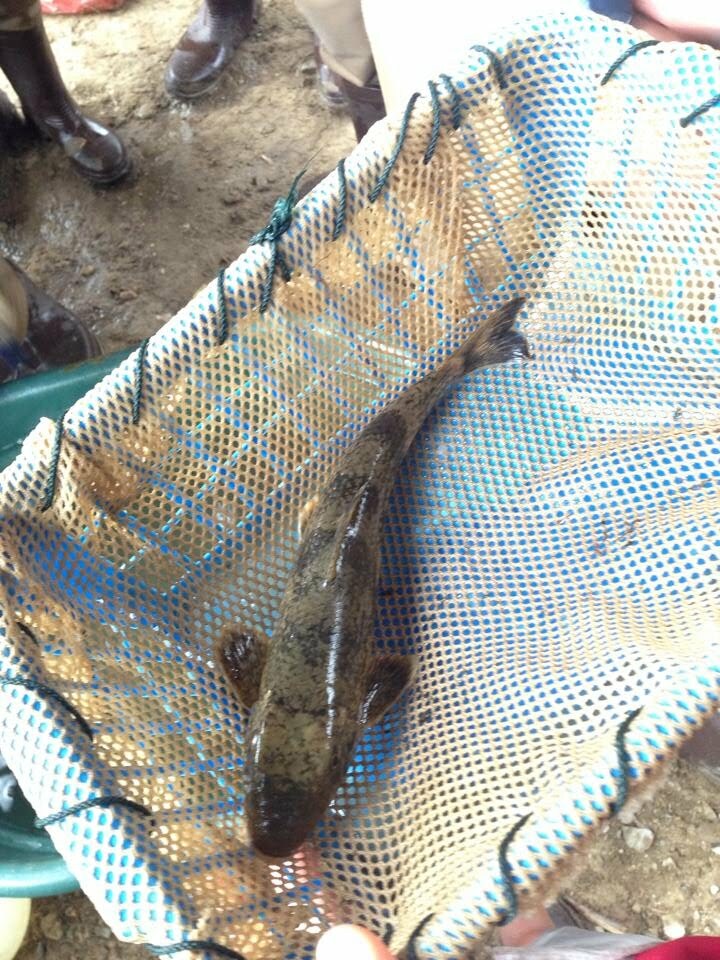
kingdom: Animalia
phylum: Chordata
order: Cypriniformes
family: Catostomidae
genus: Hypentelium
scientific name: Hypentelium nigricans
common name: Northern hog sucker
